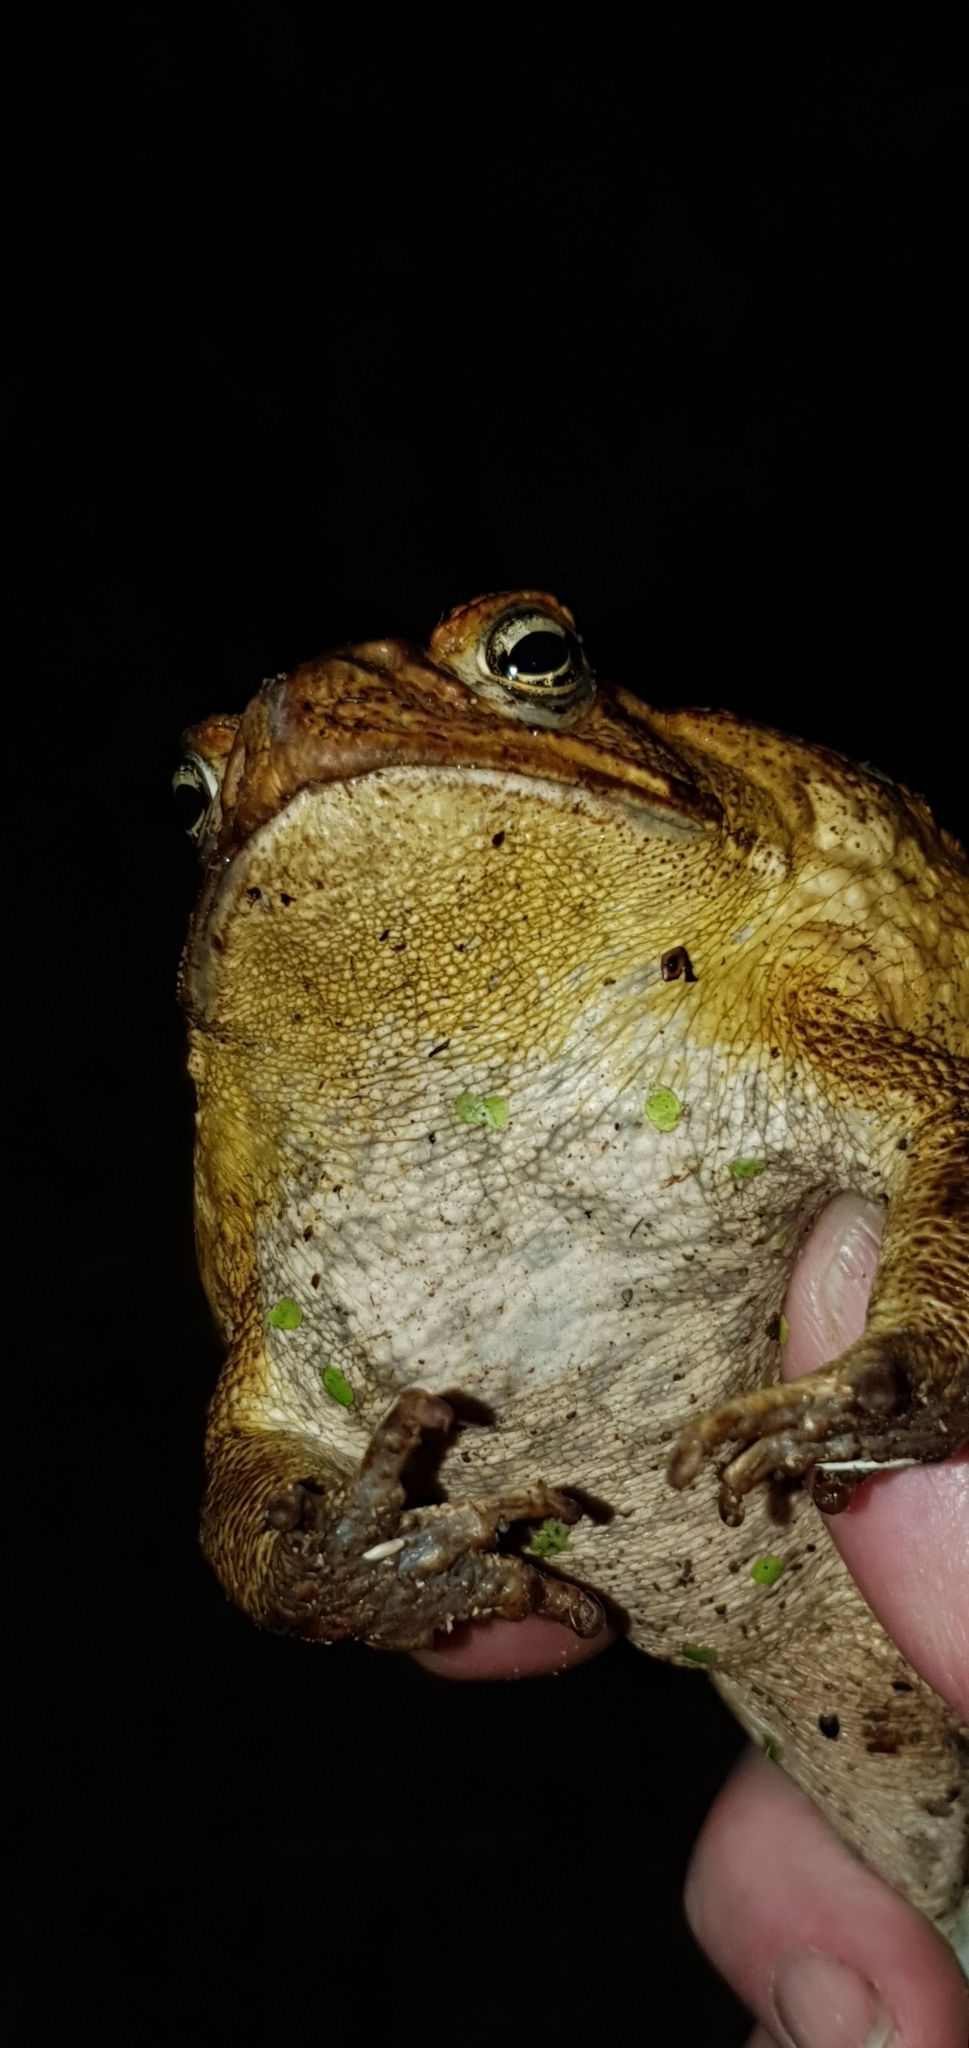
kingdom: Animalia
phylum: Chordata
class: Amphibia
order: Anura
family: Bufonidae
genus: Rhinella
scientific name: Rhinella marina
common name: Cane toad
